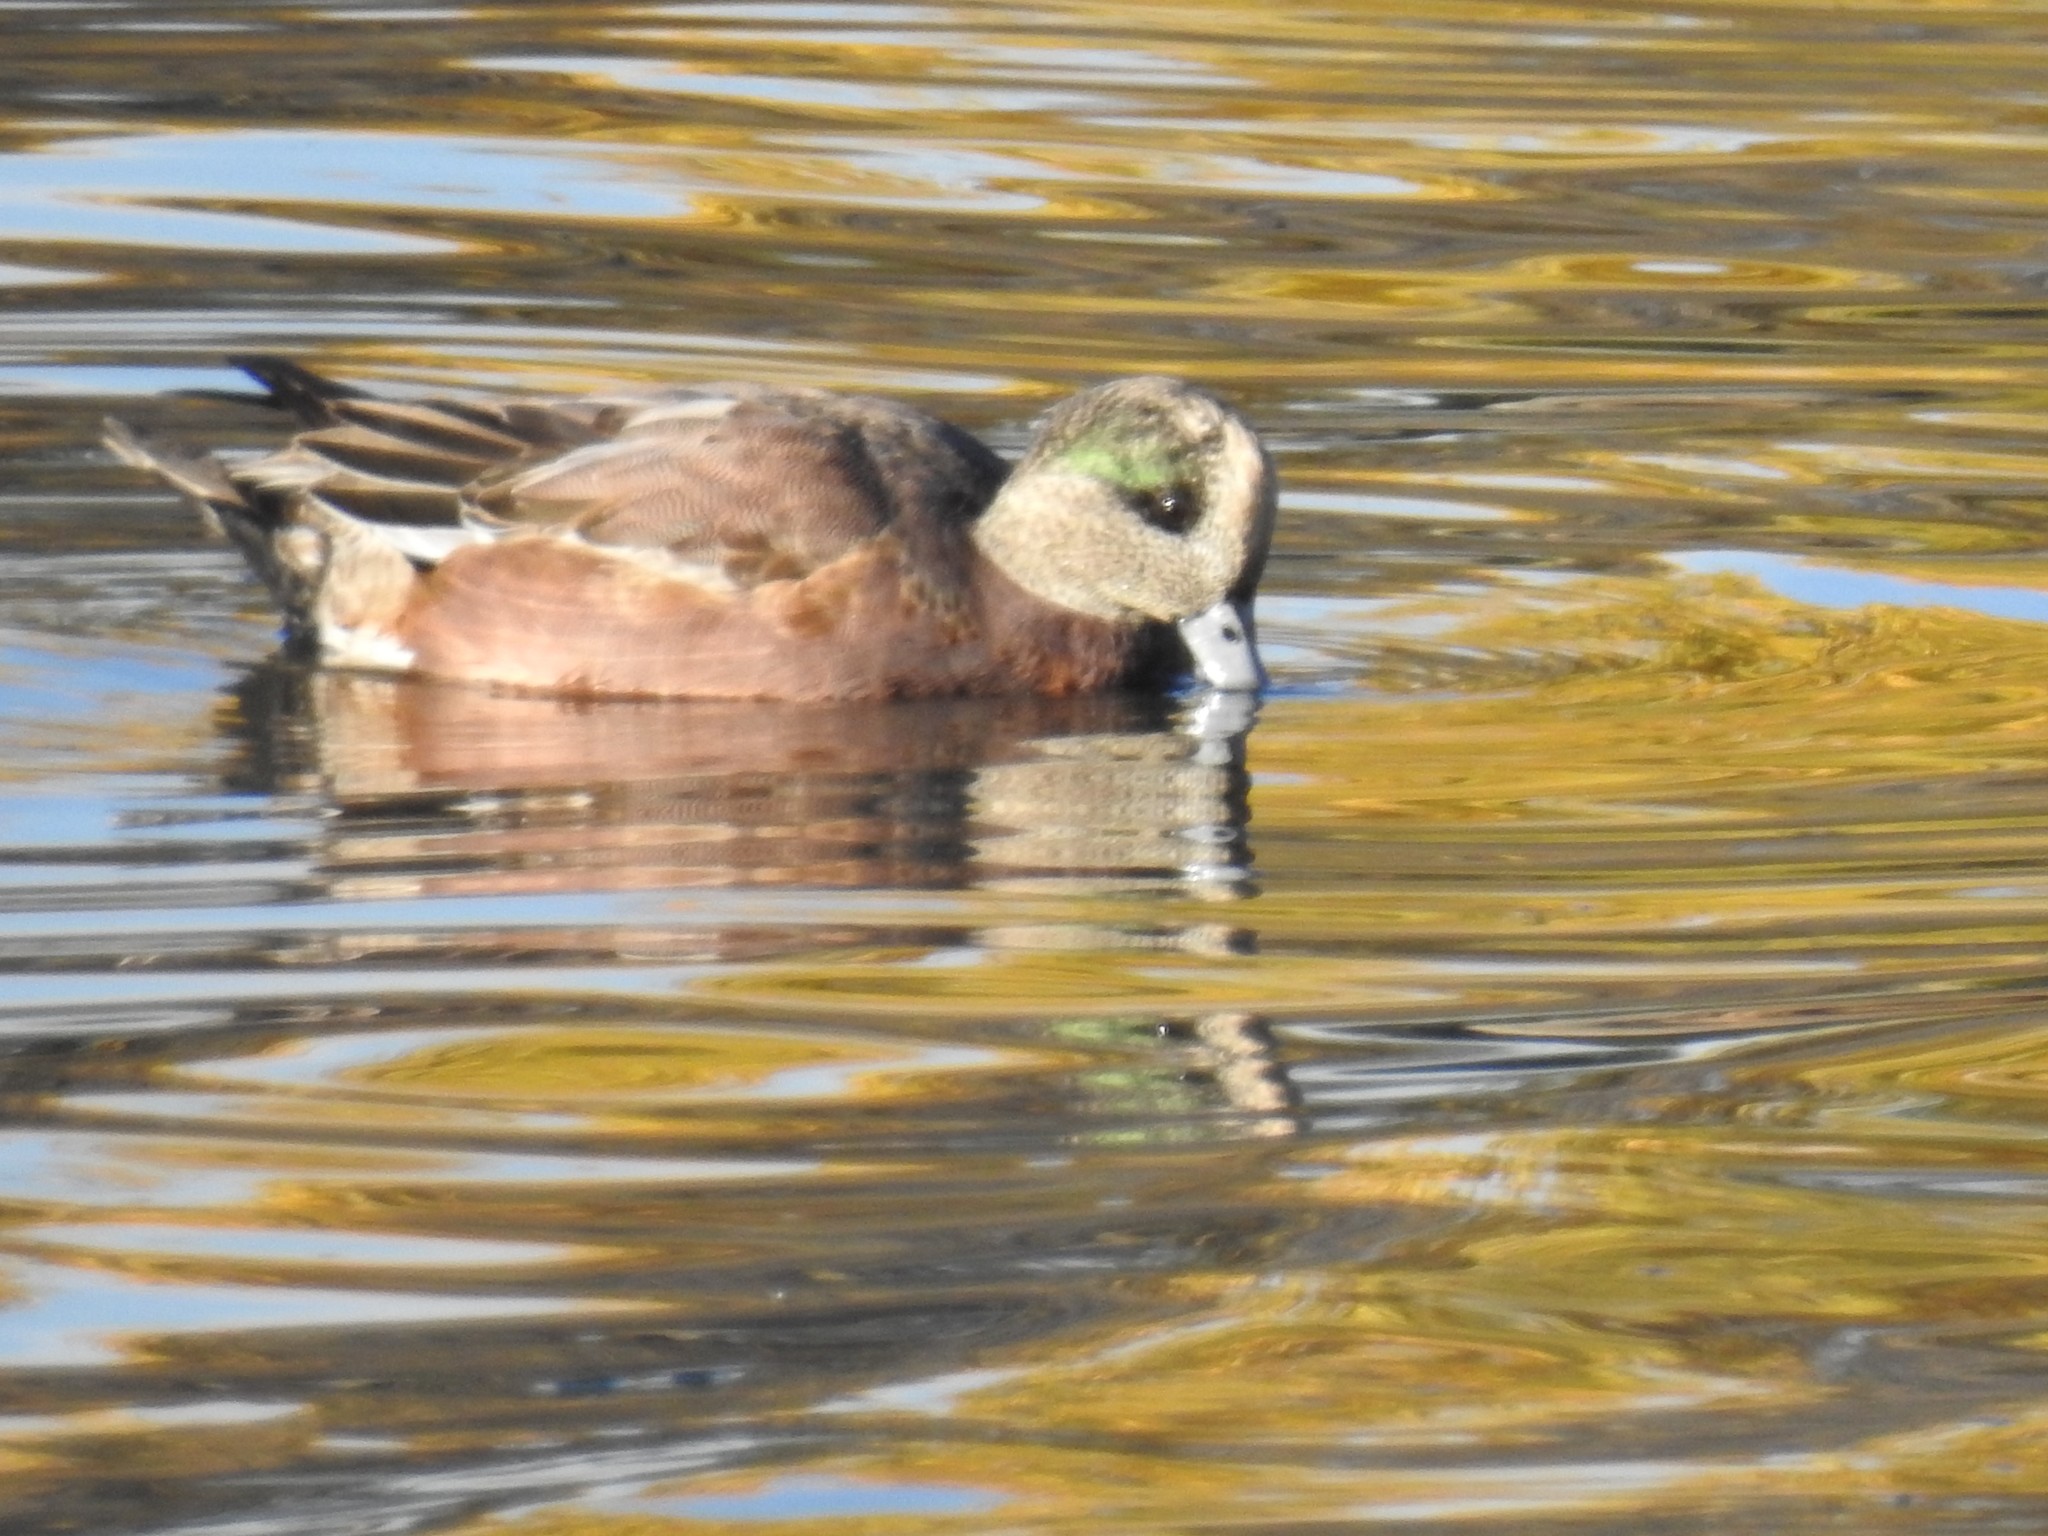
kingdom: Animalia
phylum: Chordata
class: Aves
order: Anseriformes
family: Anatidae
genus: Mareca
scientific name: Mareca americana
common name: American wigeon
